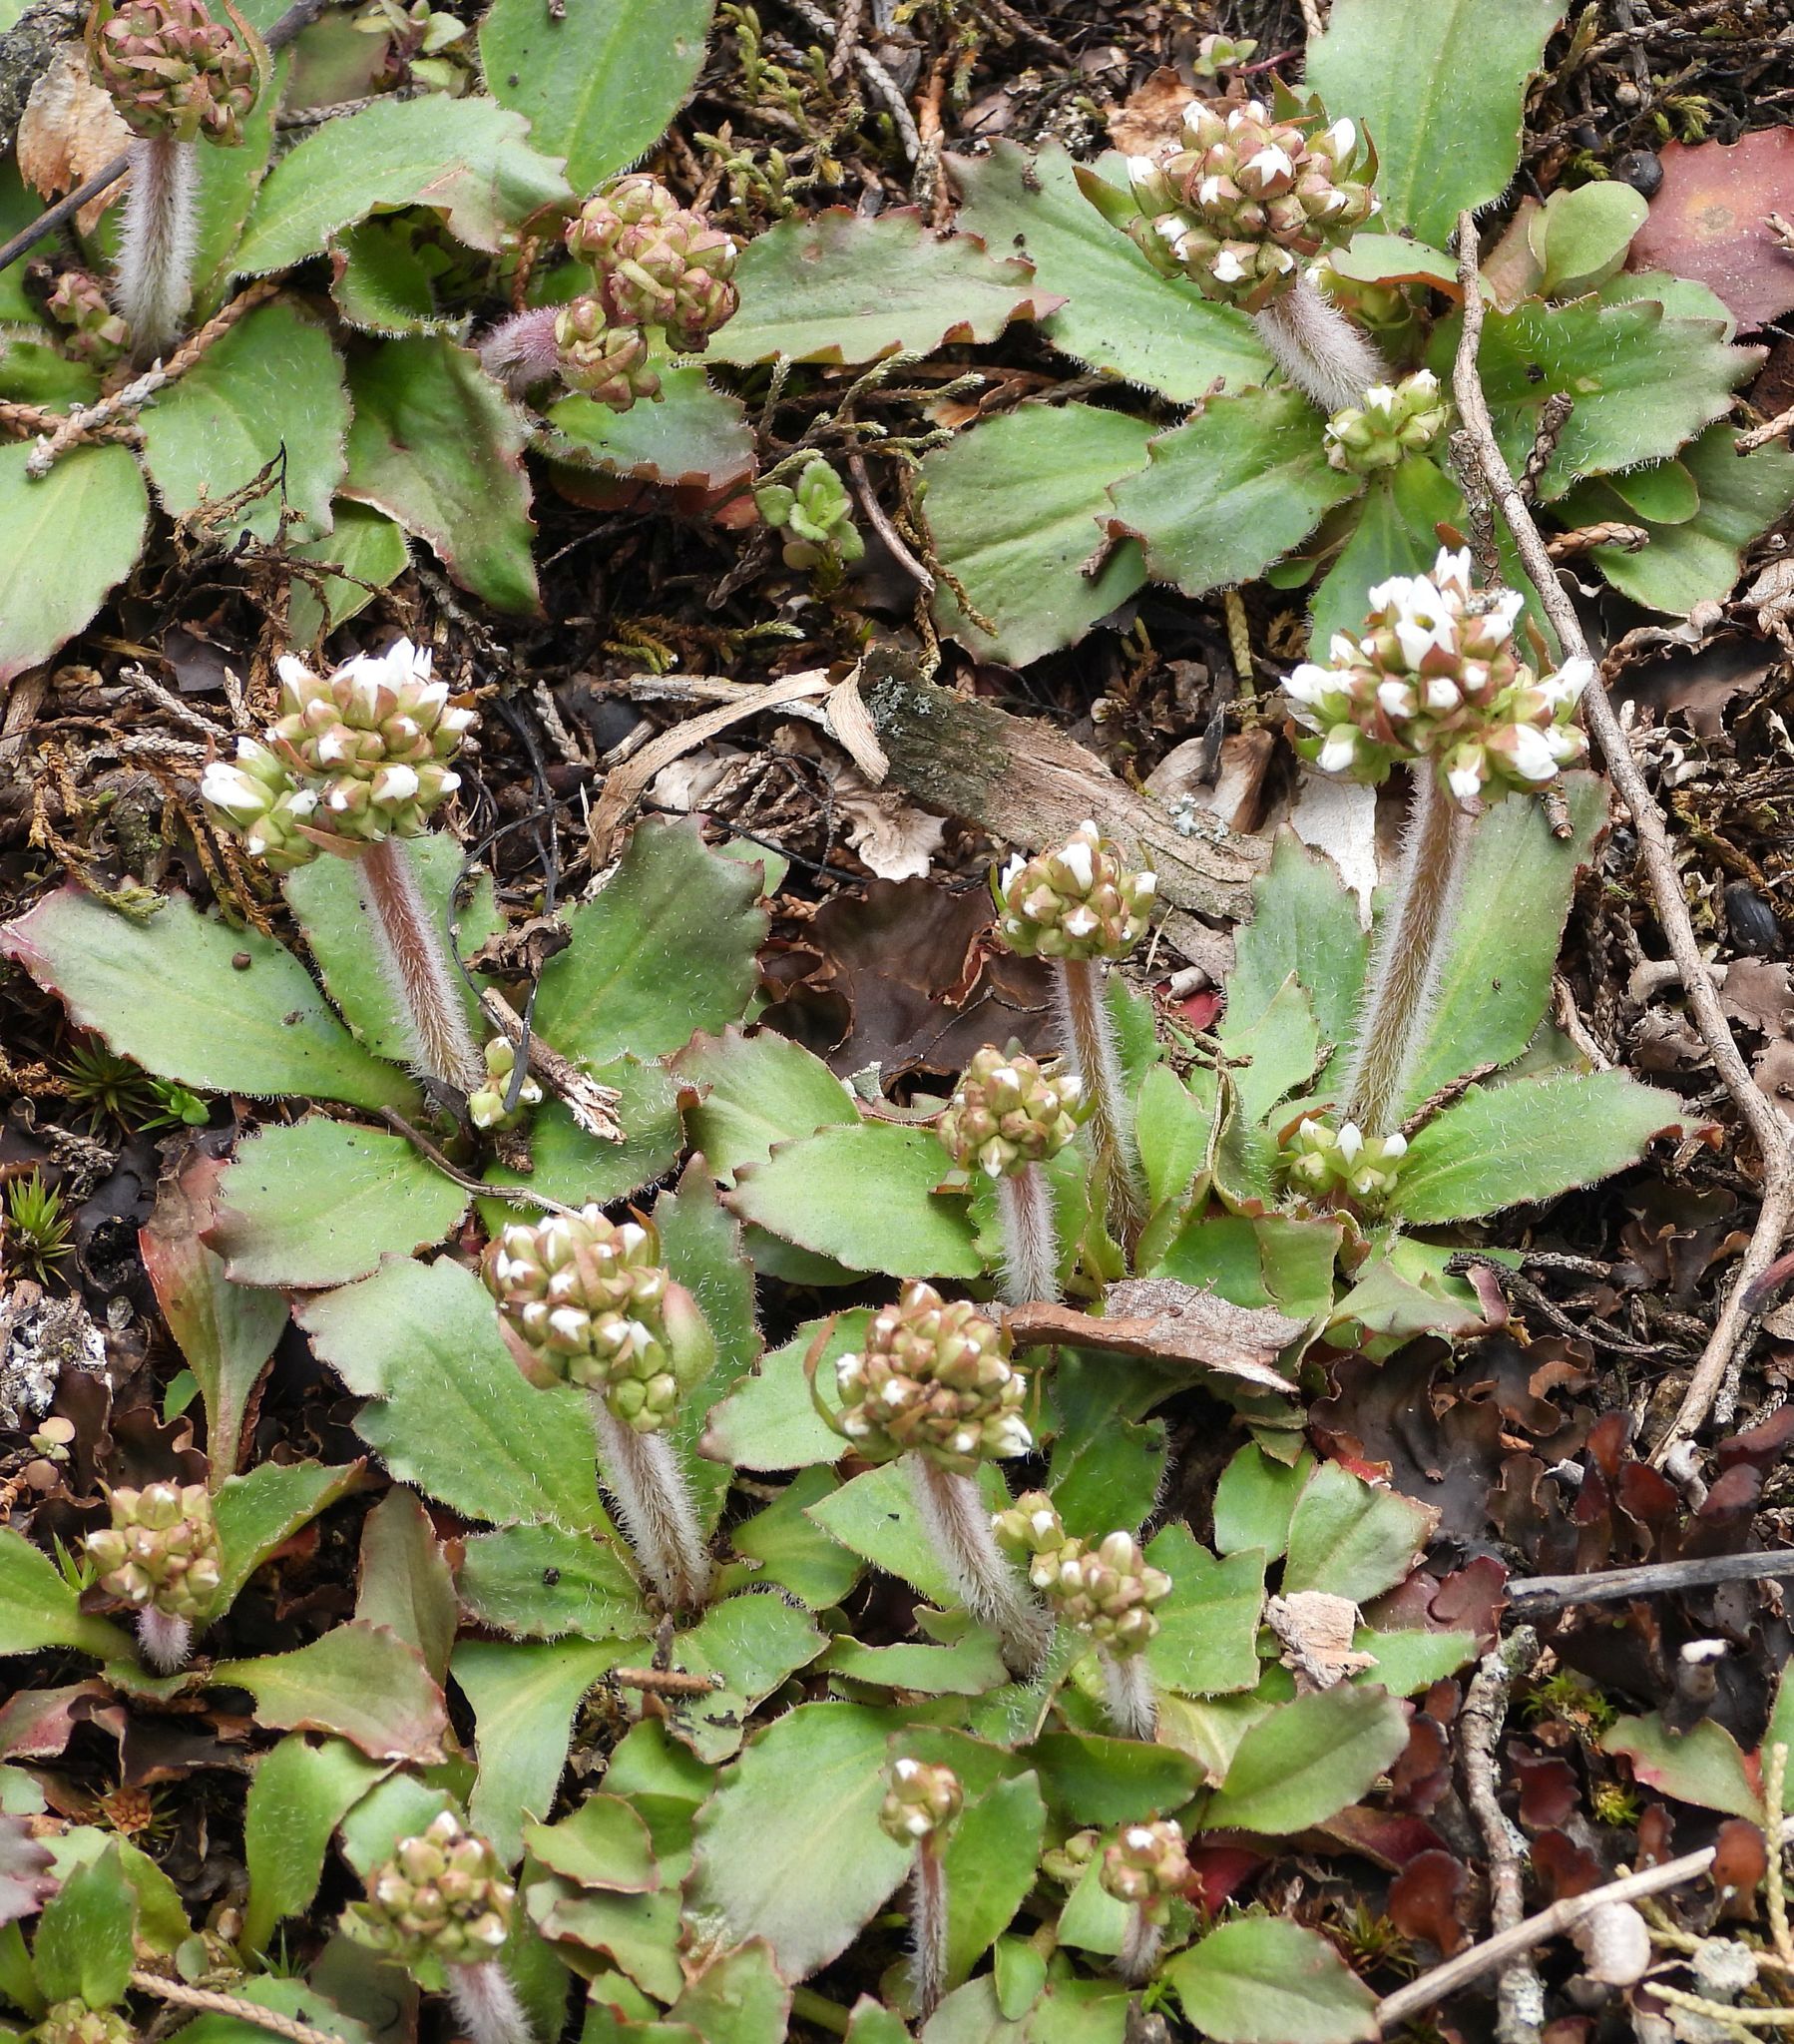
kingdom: Plantae
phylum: Tracheophyta
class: Magnoliopsida
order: Saxifragales
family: Saxifragaceae
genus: Micranthes
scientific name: Micranthes virginiensis
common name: Early saxifrage
